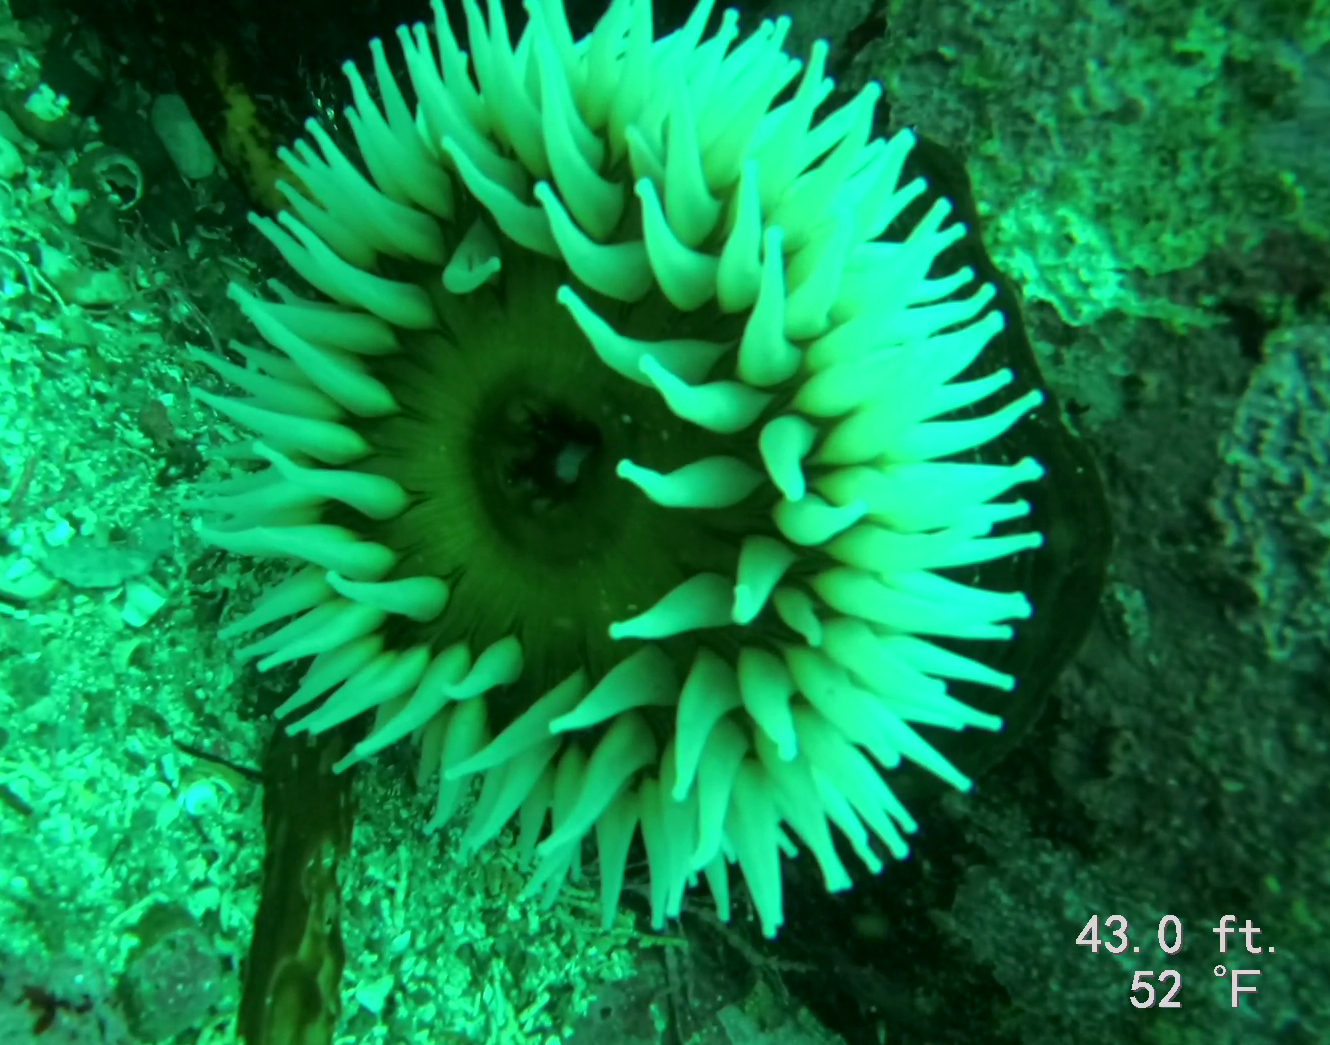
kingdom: Animalia
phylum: Cnidaria
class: Anthozoa
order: Actiniaria
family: Actiniidae
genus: Urticina
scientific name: Urticina piscivora
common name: Velvety red anemone
